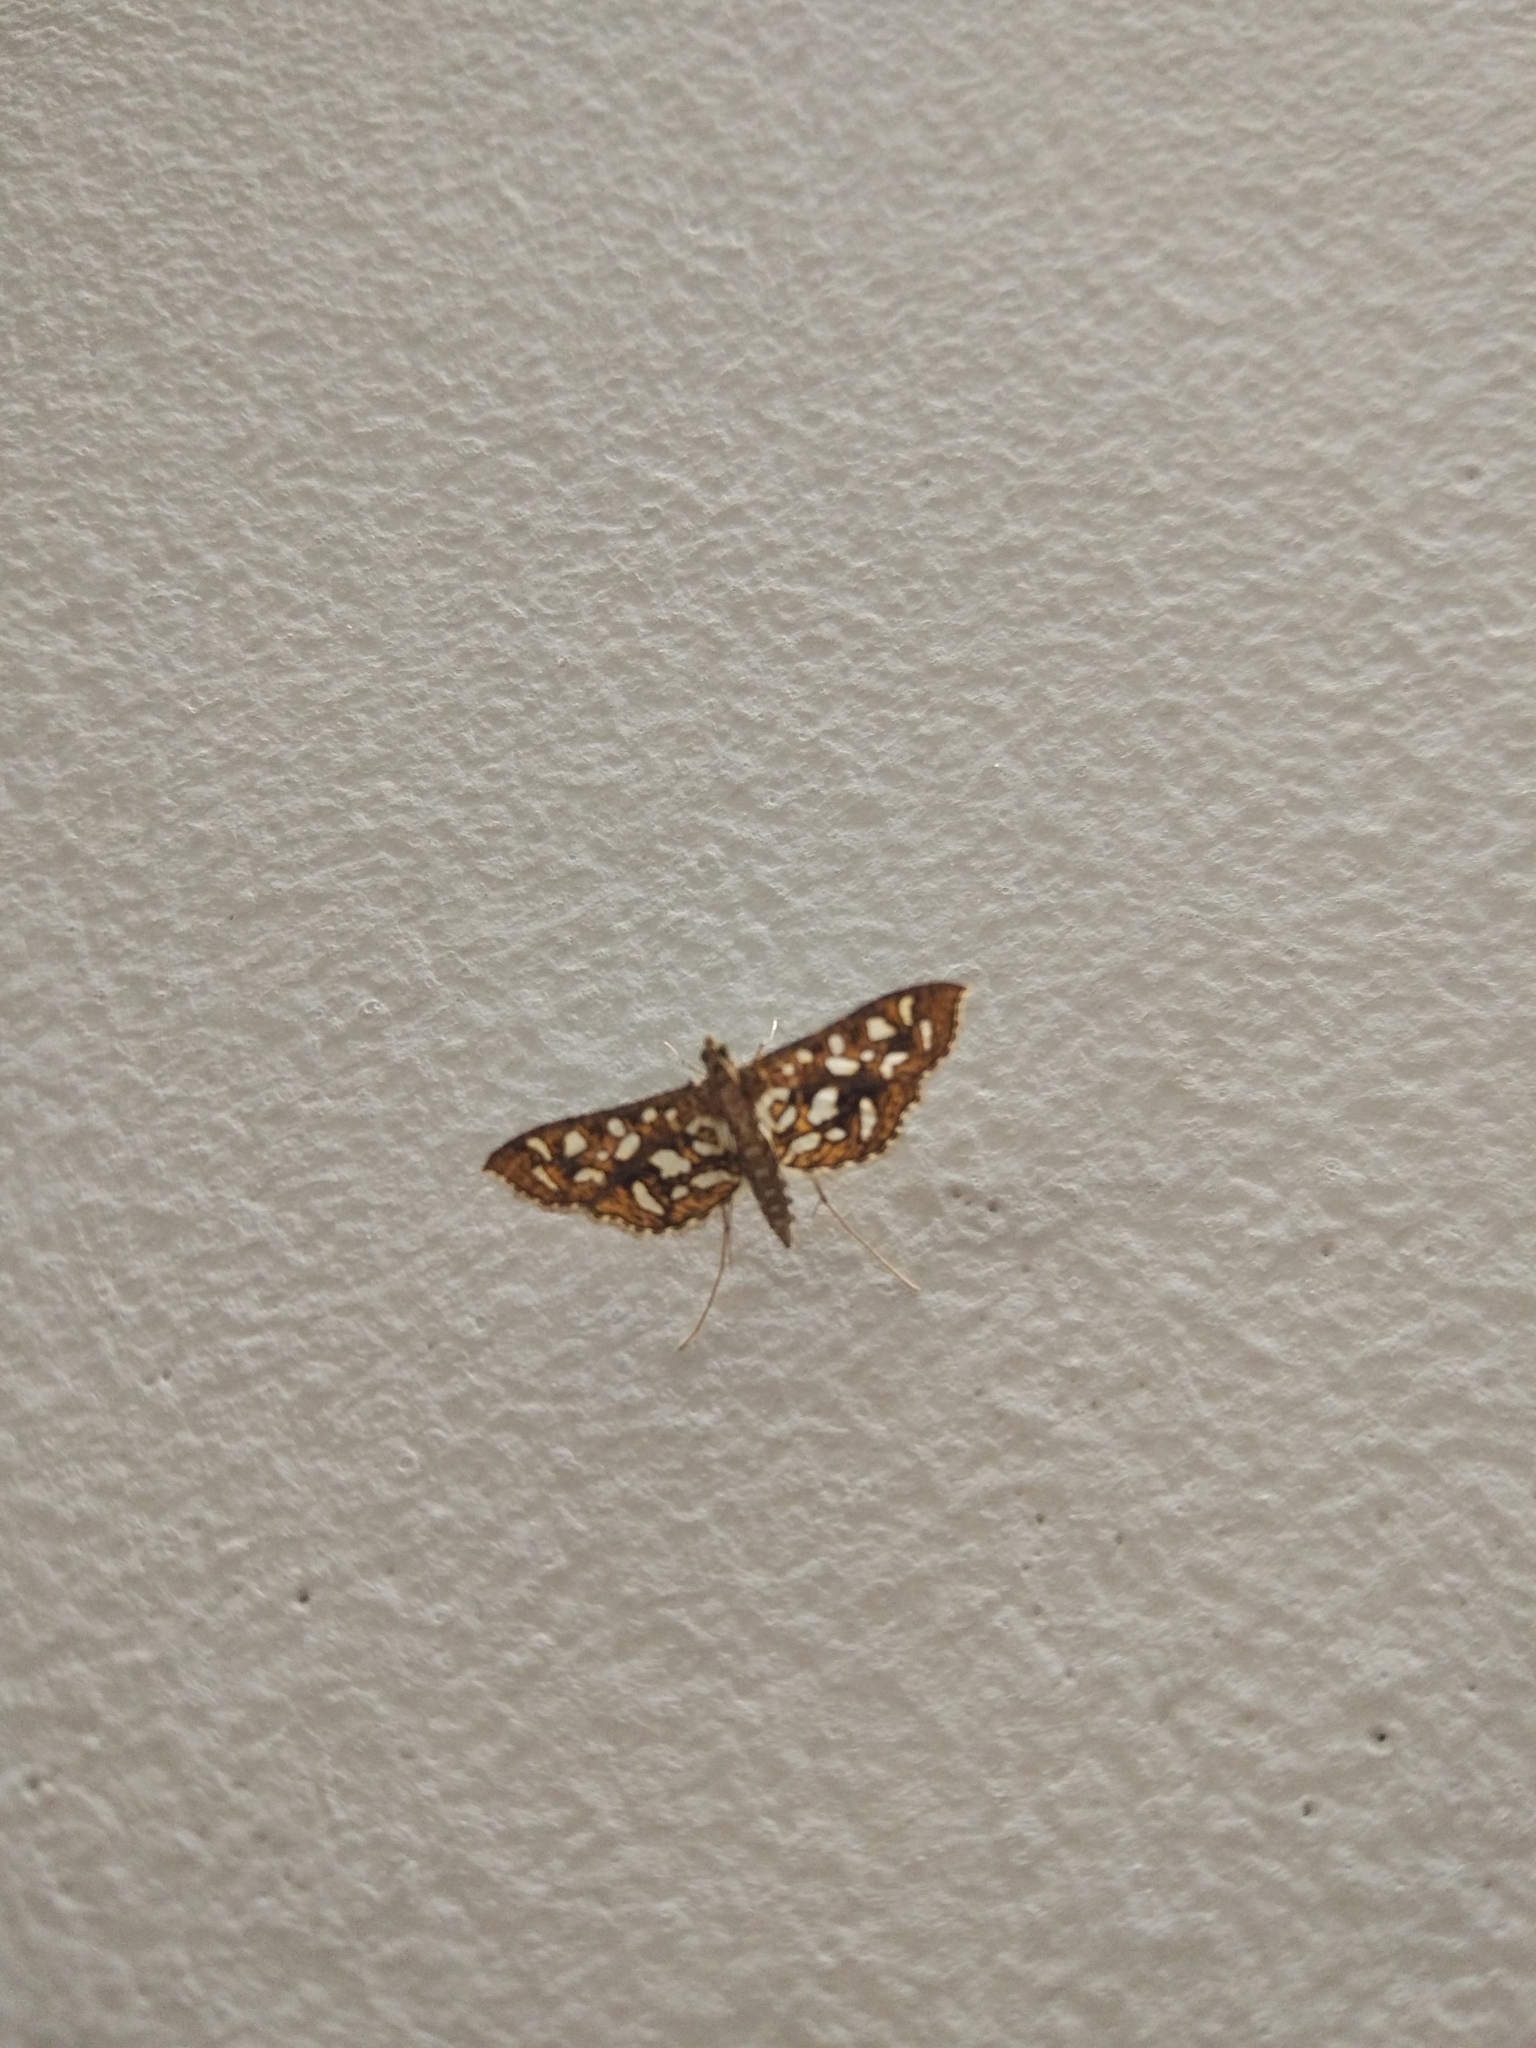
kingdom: Animalia
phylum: Arthropoda
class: Insecta
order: Lepidoptera
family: Crambidae
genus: Nausinoe
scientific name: Nausinoe geometralis
